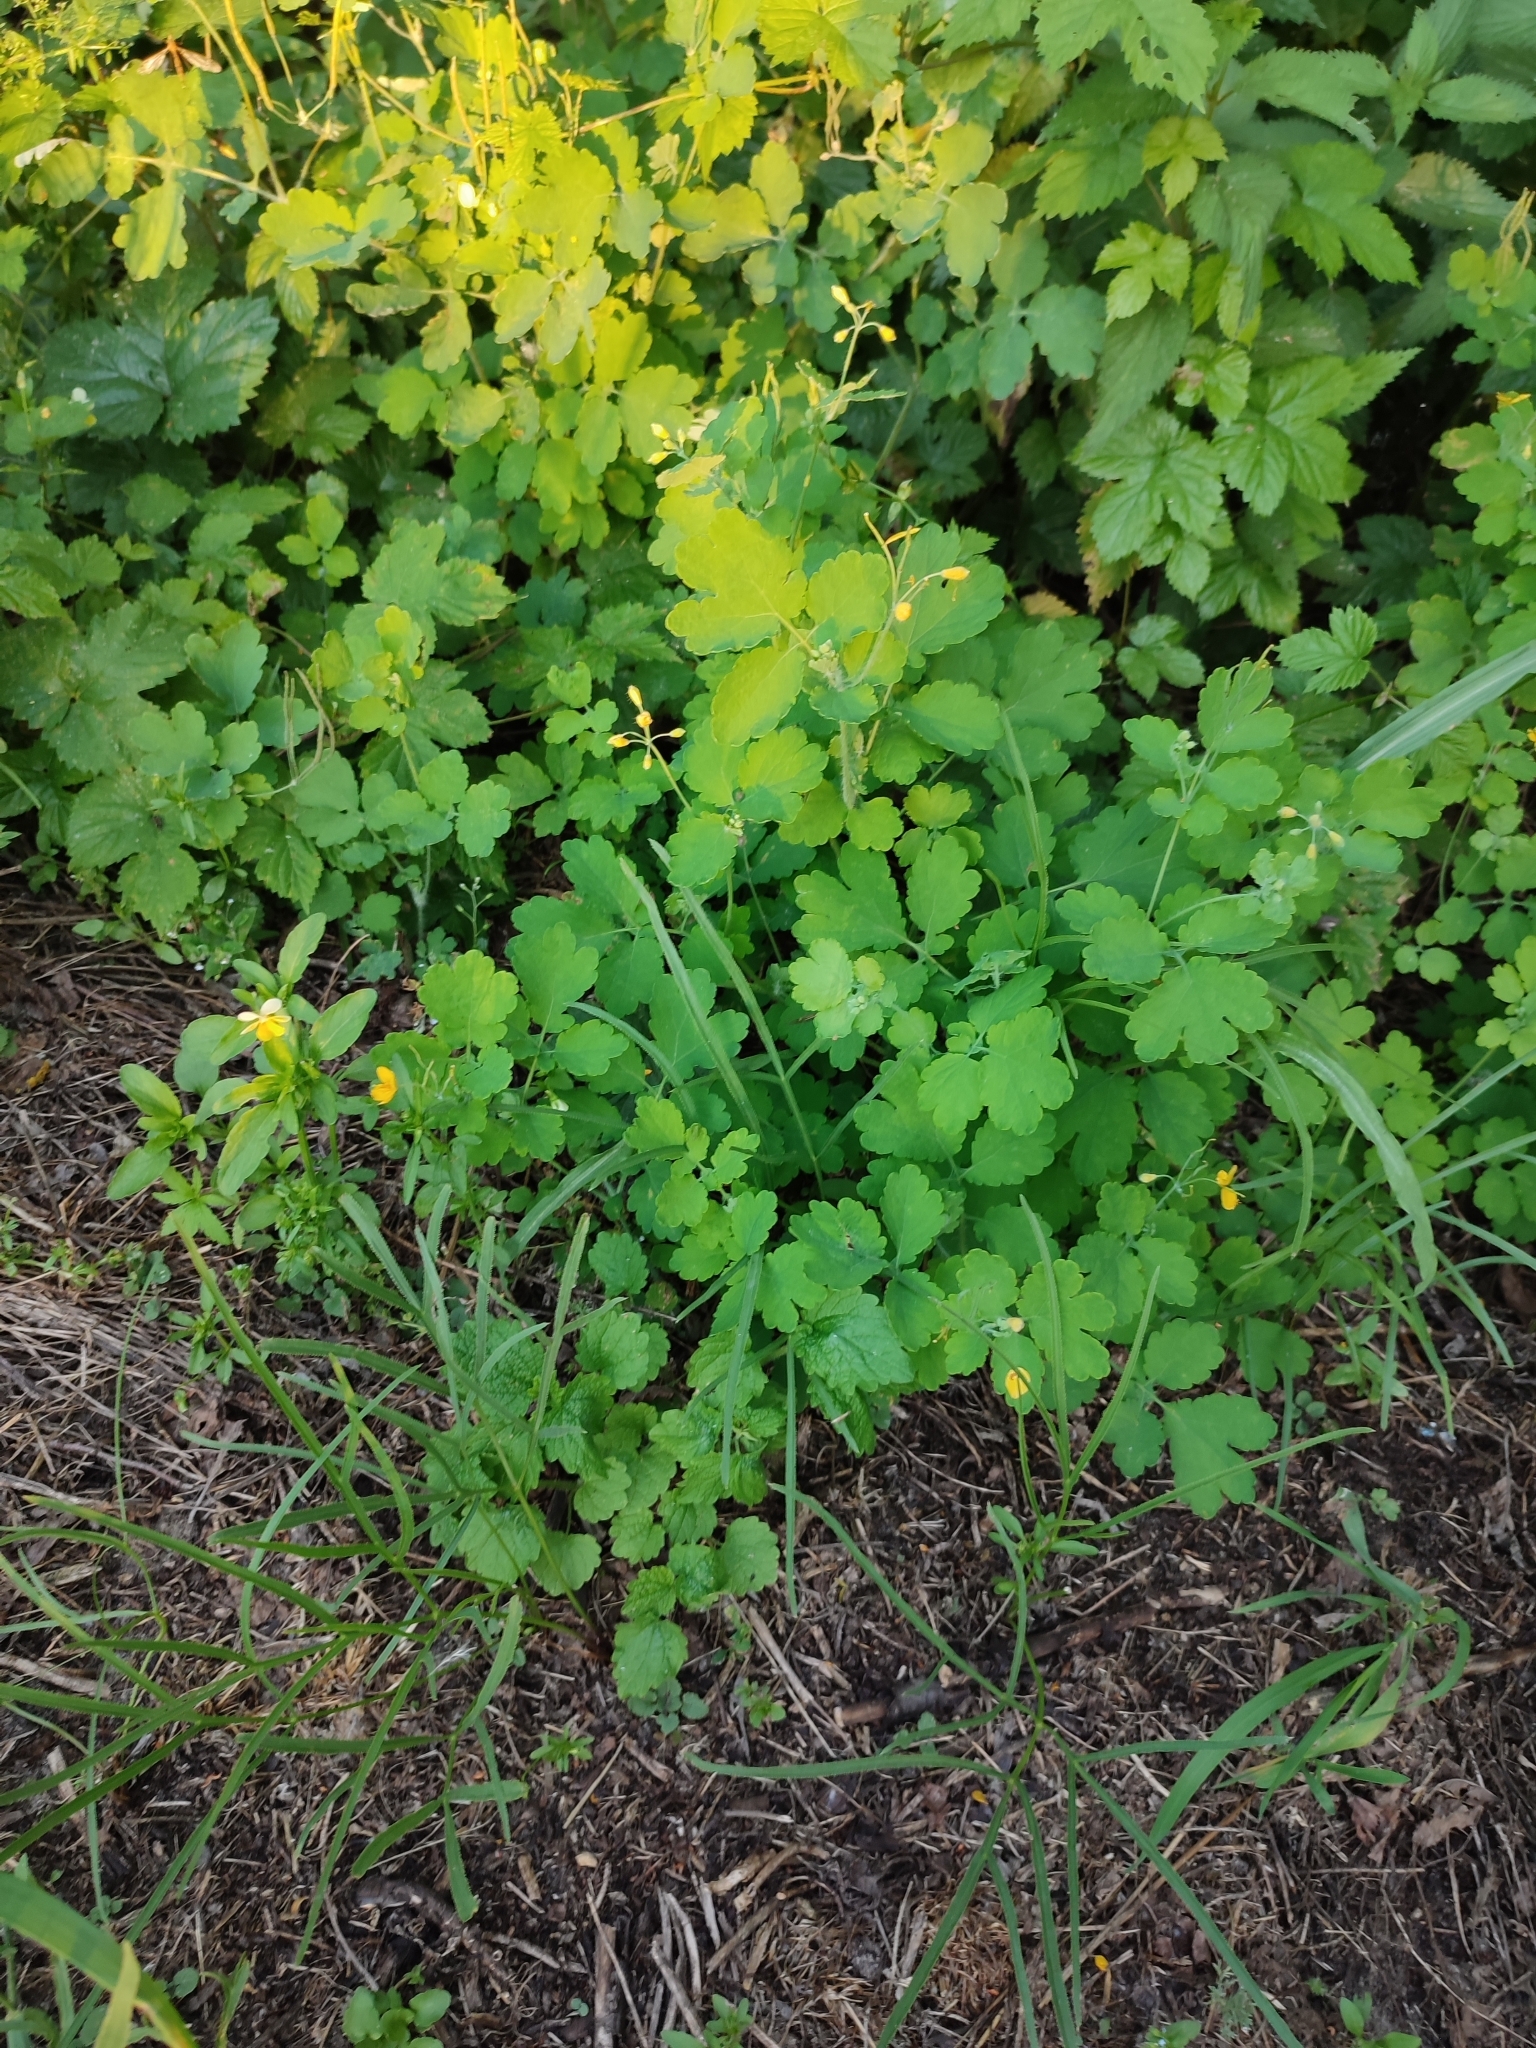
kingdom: Plantae
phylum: Tracheophyta
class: Magnoliopsida
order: Ranunculales
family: Papaveraceae
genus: Chelidonium
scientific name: Chelidonium majus
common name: Greater celandine
